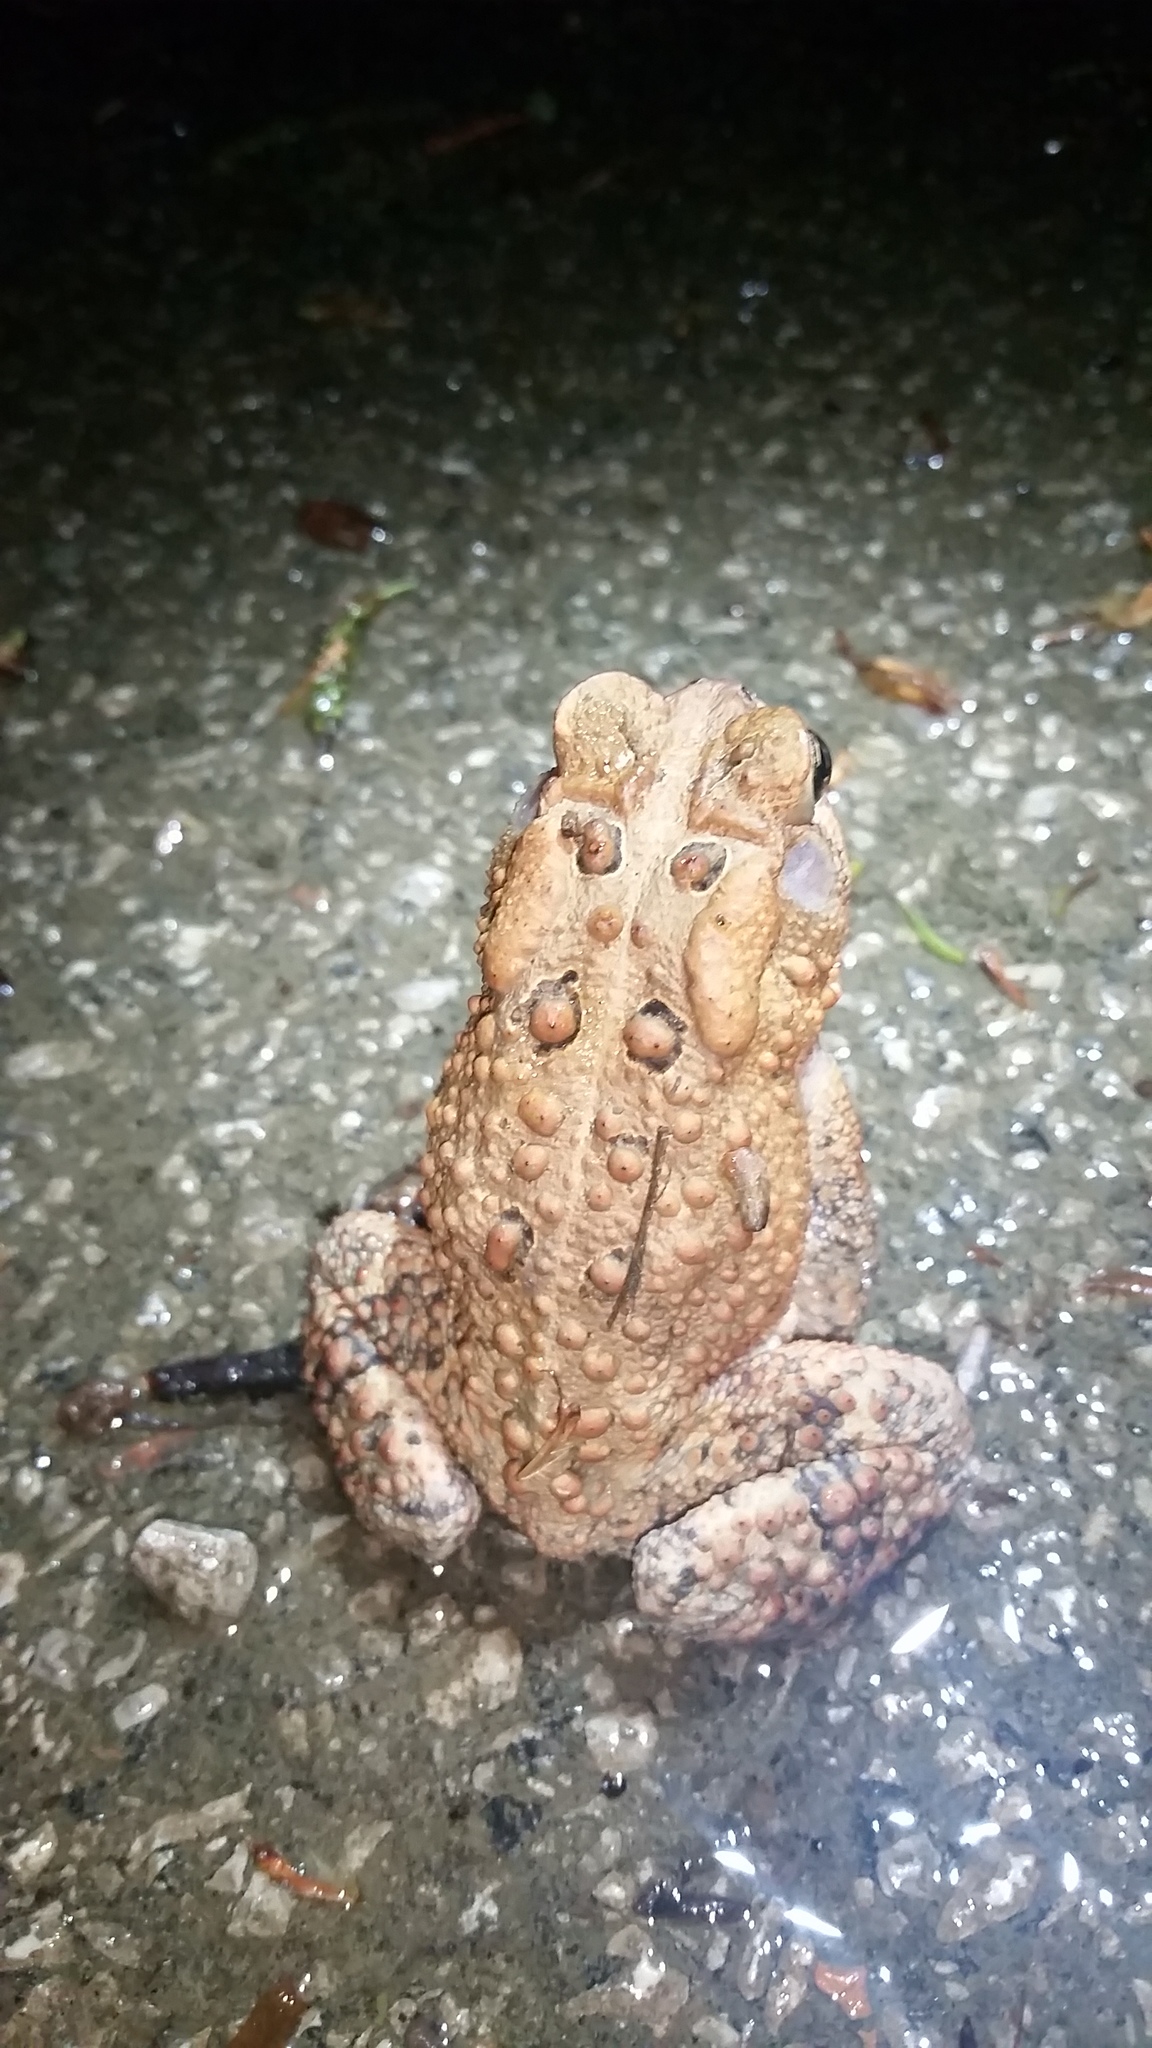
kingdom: Animalia
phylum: Chordata
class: Amphibia
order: Anura
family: Bufonidae
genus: Anaxyrus
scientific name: Anaxyrus americanus
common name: American toad
